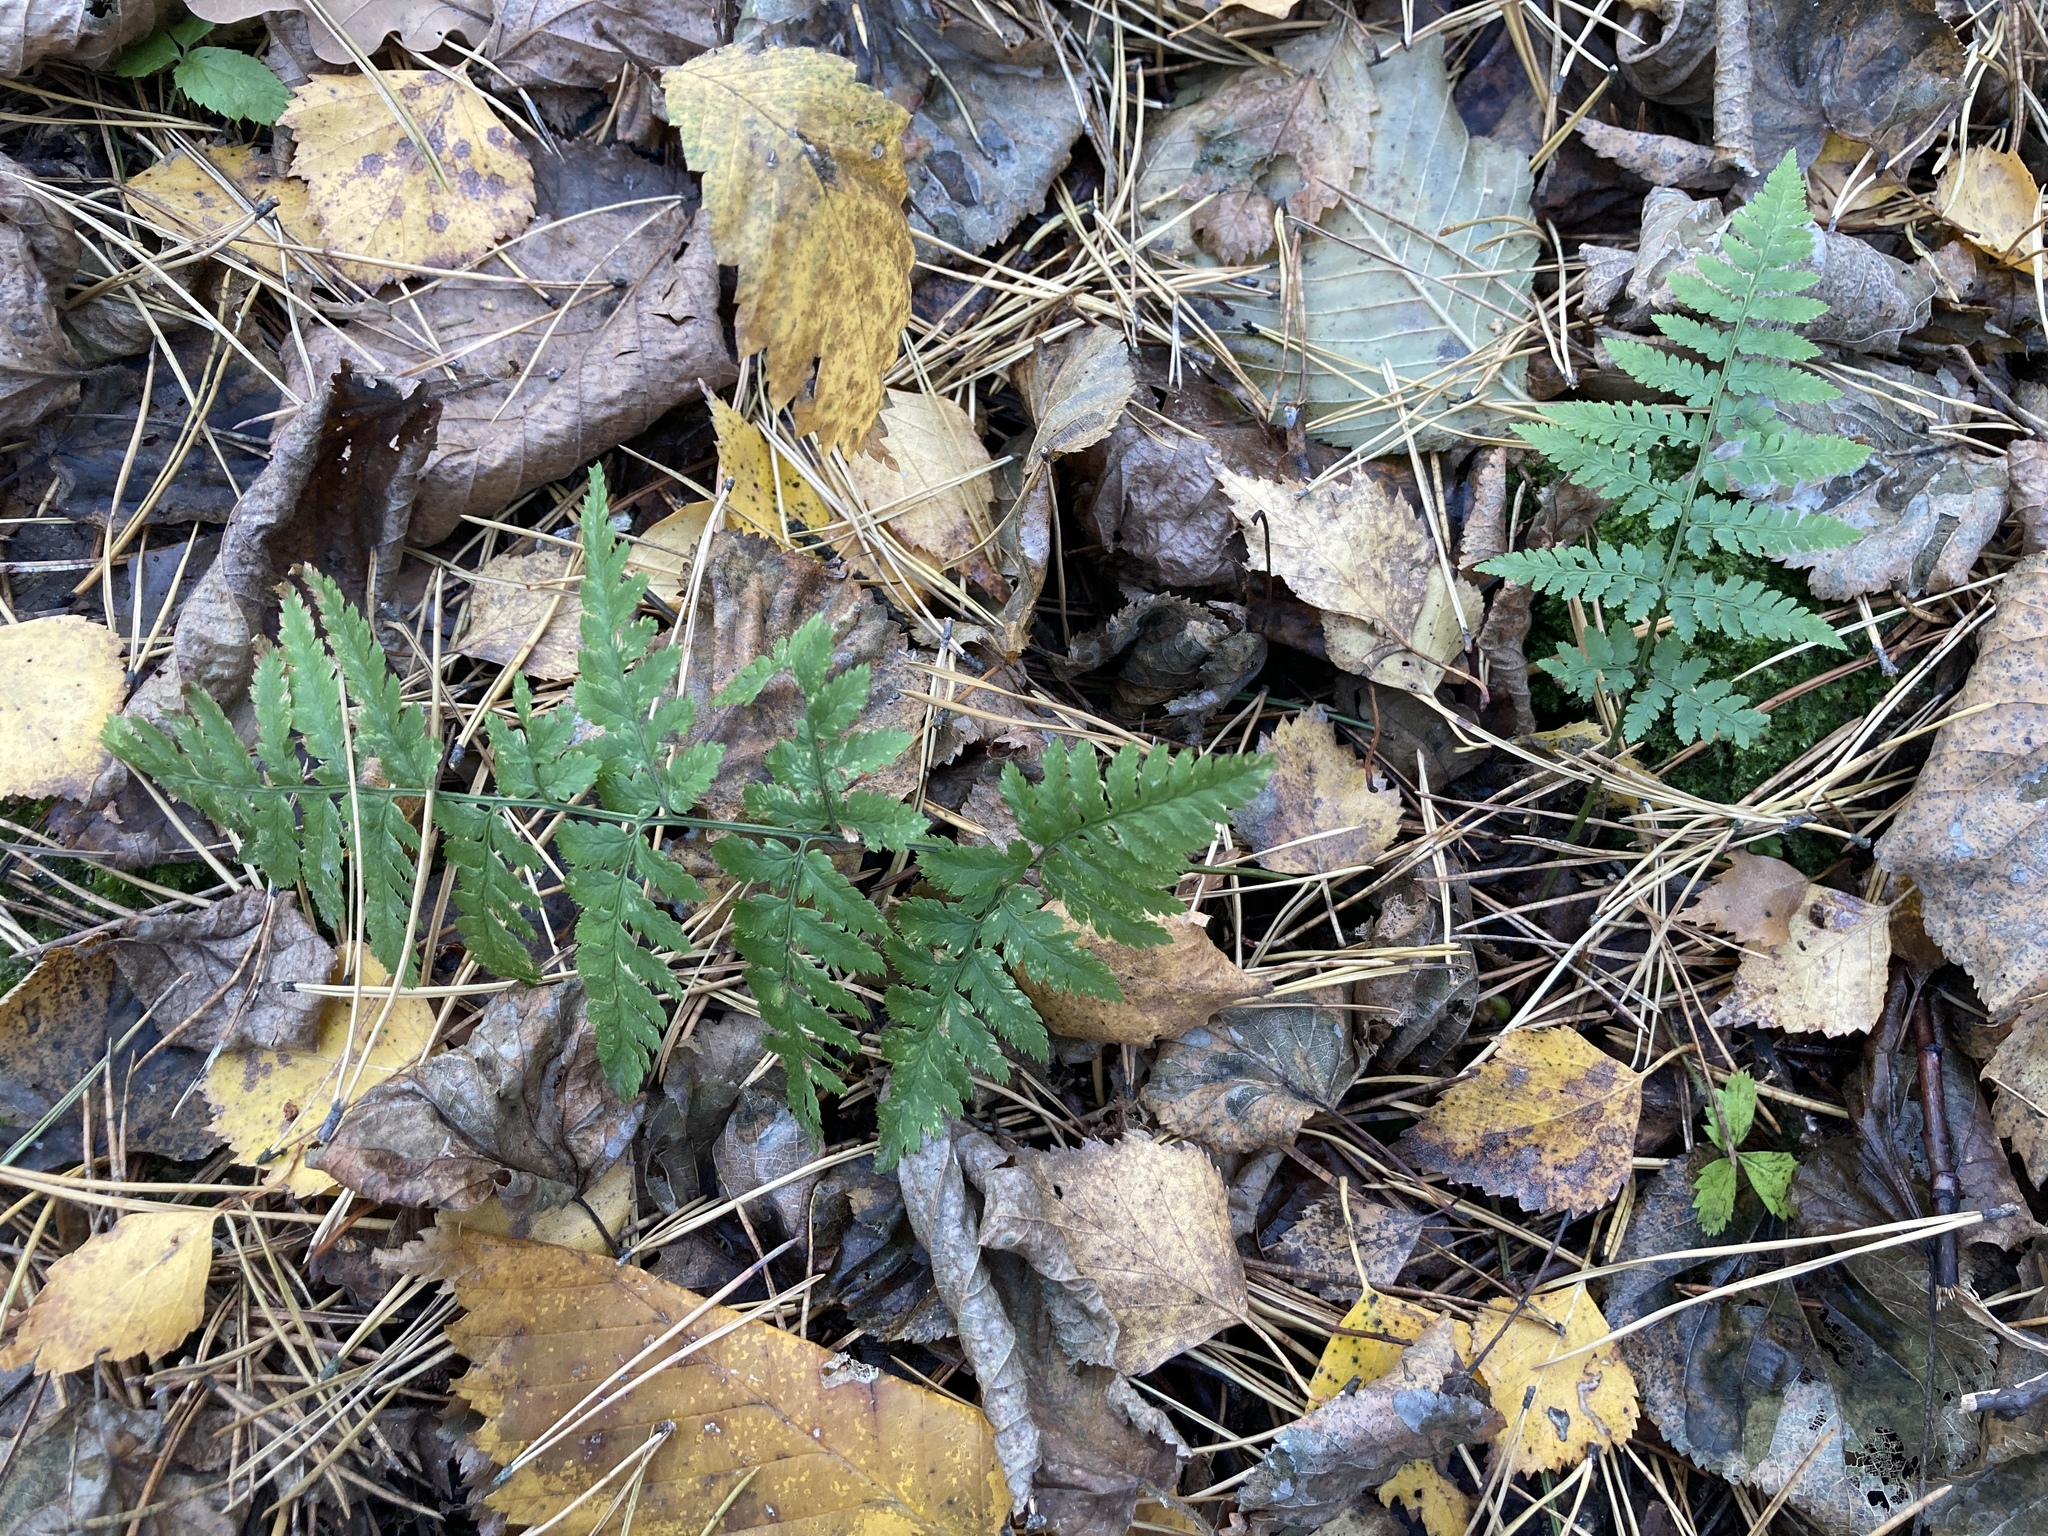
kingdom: Plantae
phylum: Tracheophyta
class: Polypodiopsida
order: Polypodiales
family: Dryopteridaceae
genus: Dryopteris
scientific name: Dryopteris carthusiana
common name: Narrow buckler-fern
